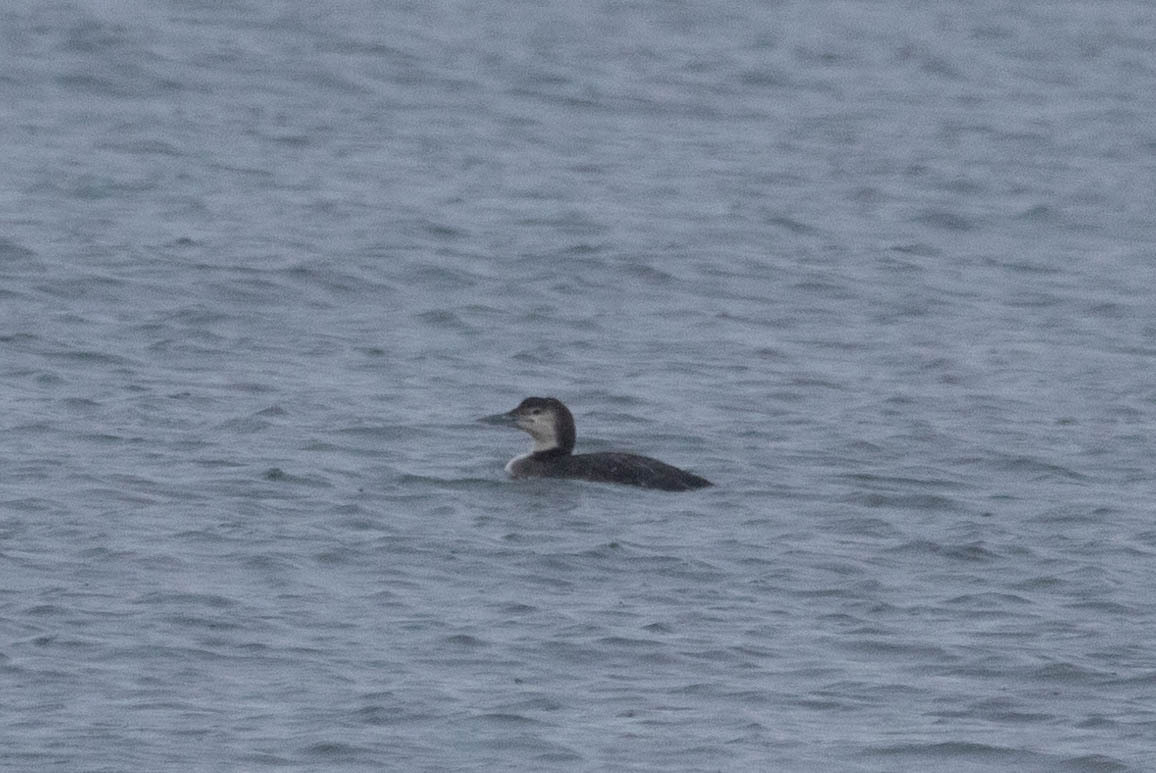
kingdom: Animalia
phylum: Chordata
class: Aves
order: Gaviiformes
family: Gaviidae
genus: Gavia
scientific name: Gavia immer
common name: Common loon
